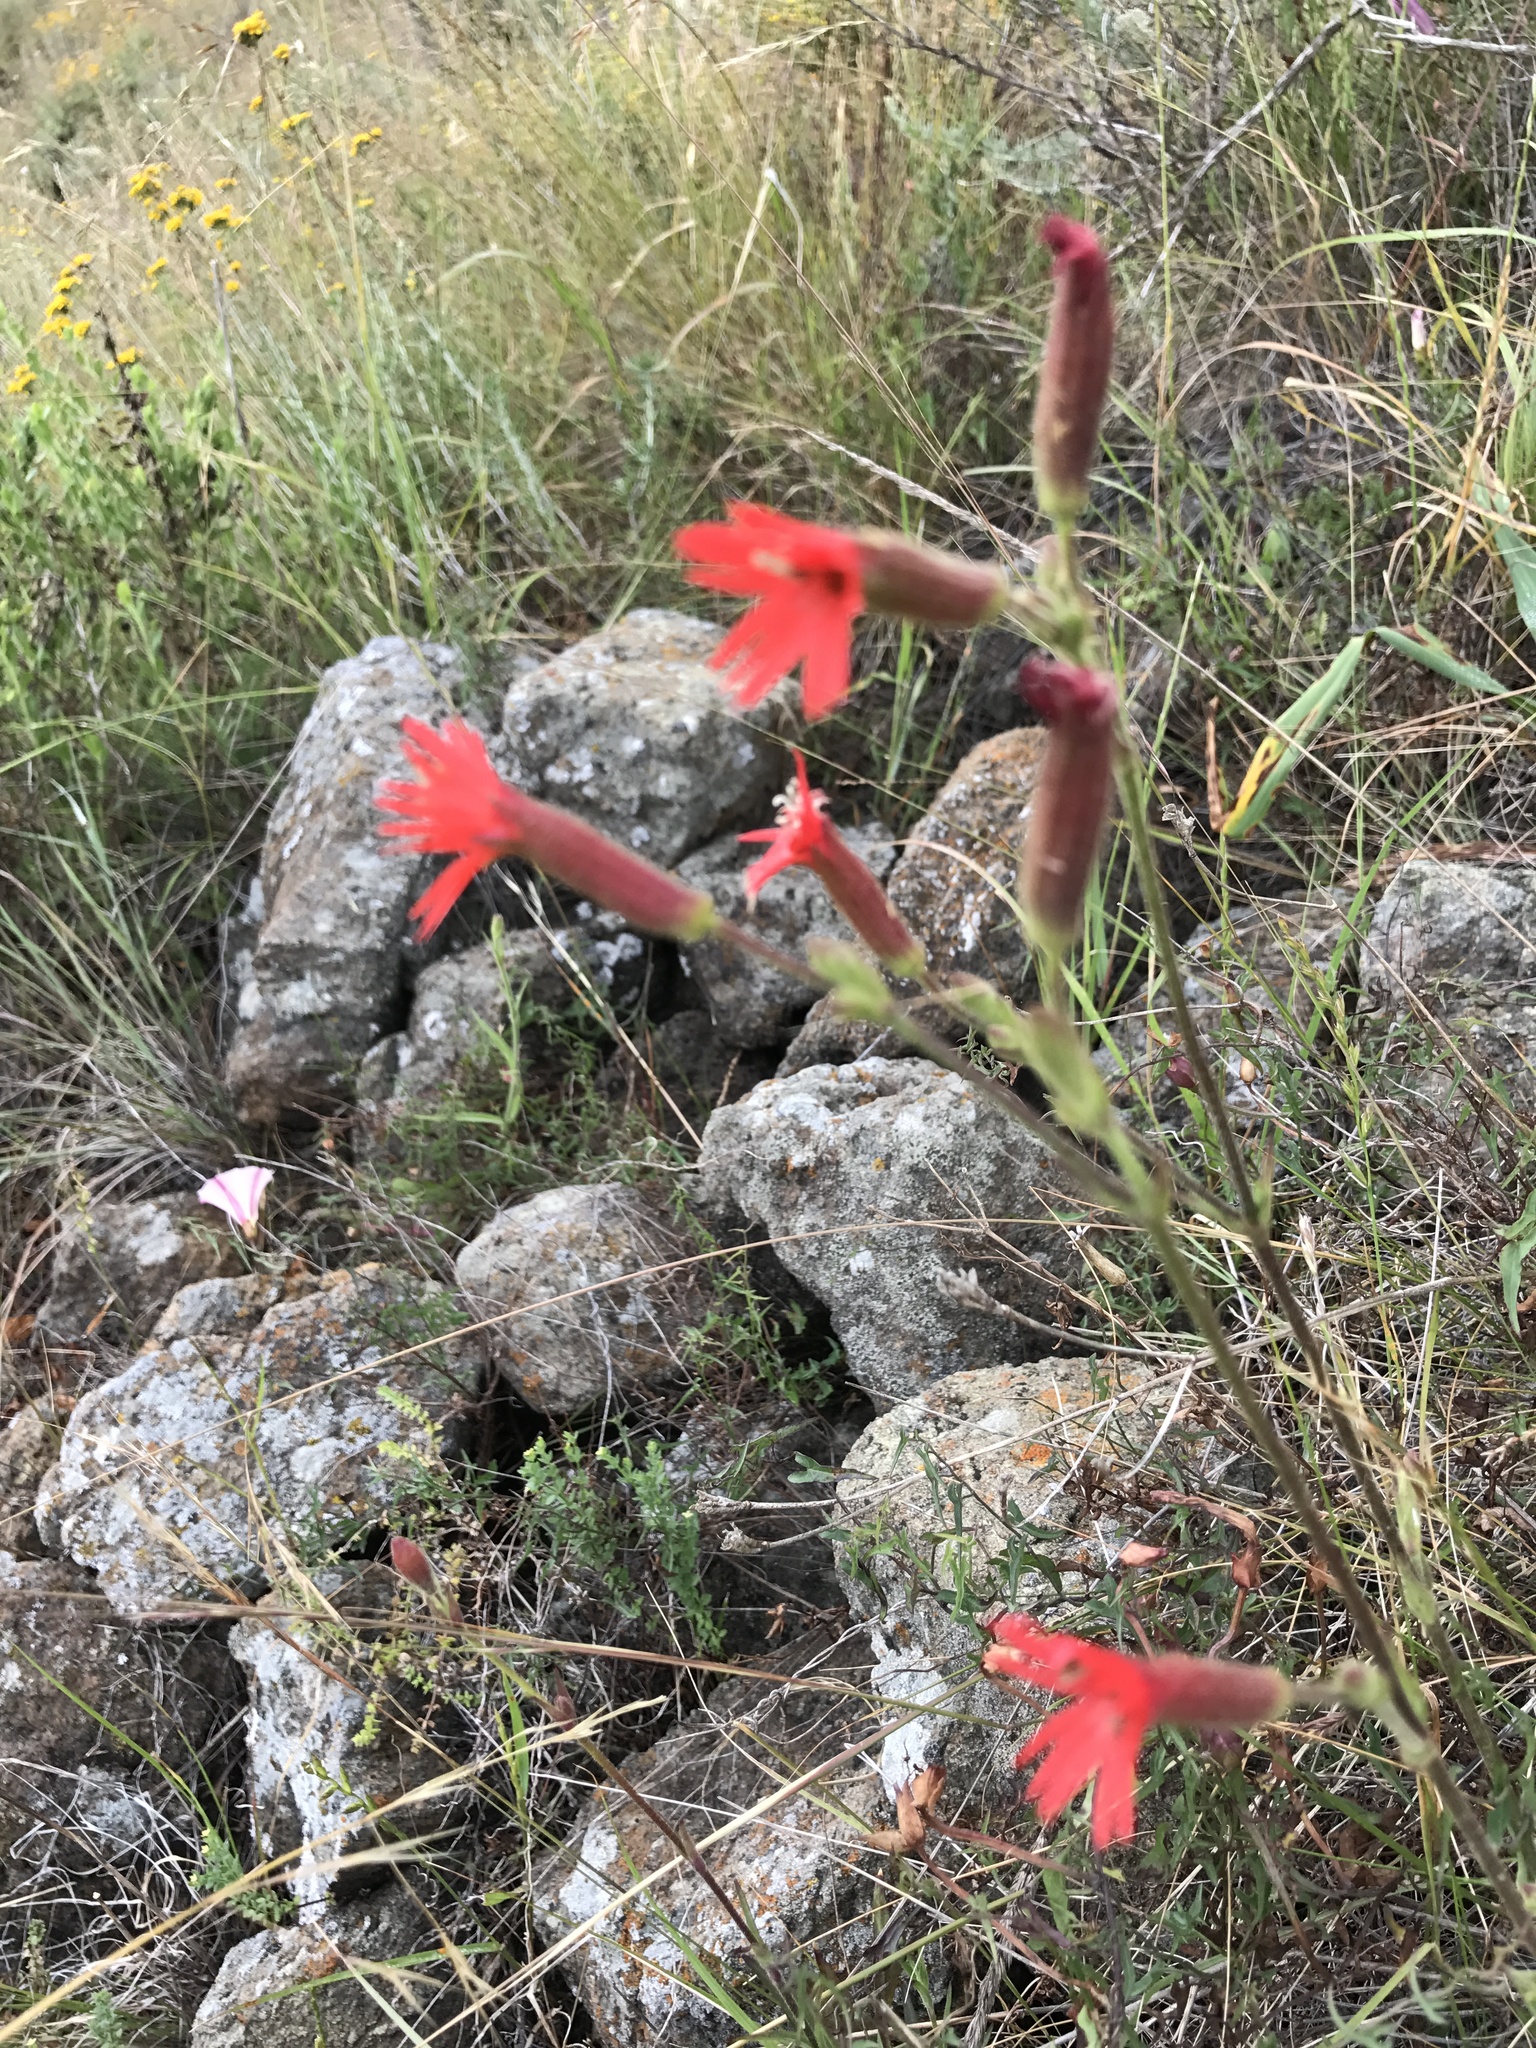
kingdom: Plantae
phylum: Tracheophyta
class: Magnoliopsida
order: Caryophyllales
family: Caryophyllaceae
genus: Silene
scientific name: Silene laciniata
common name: Indian-pink
